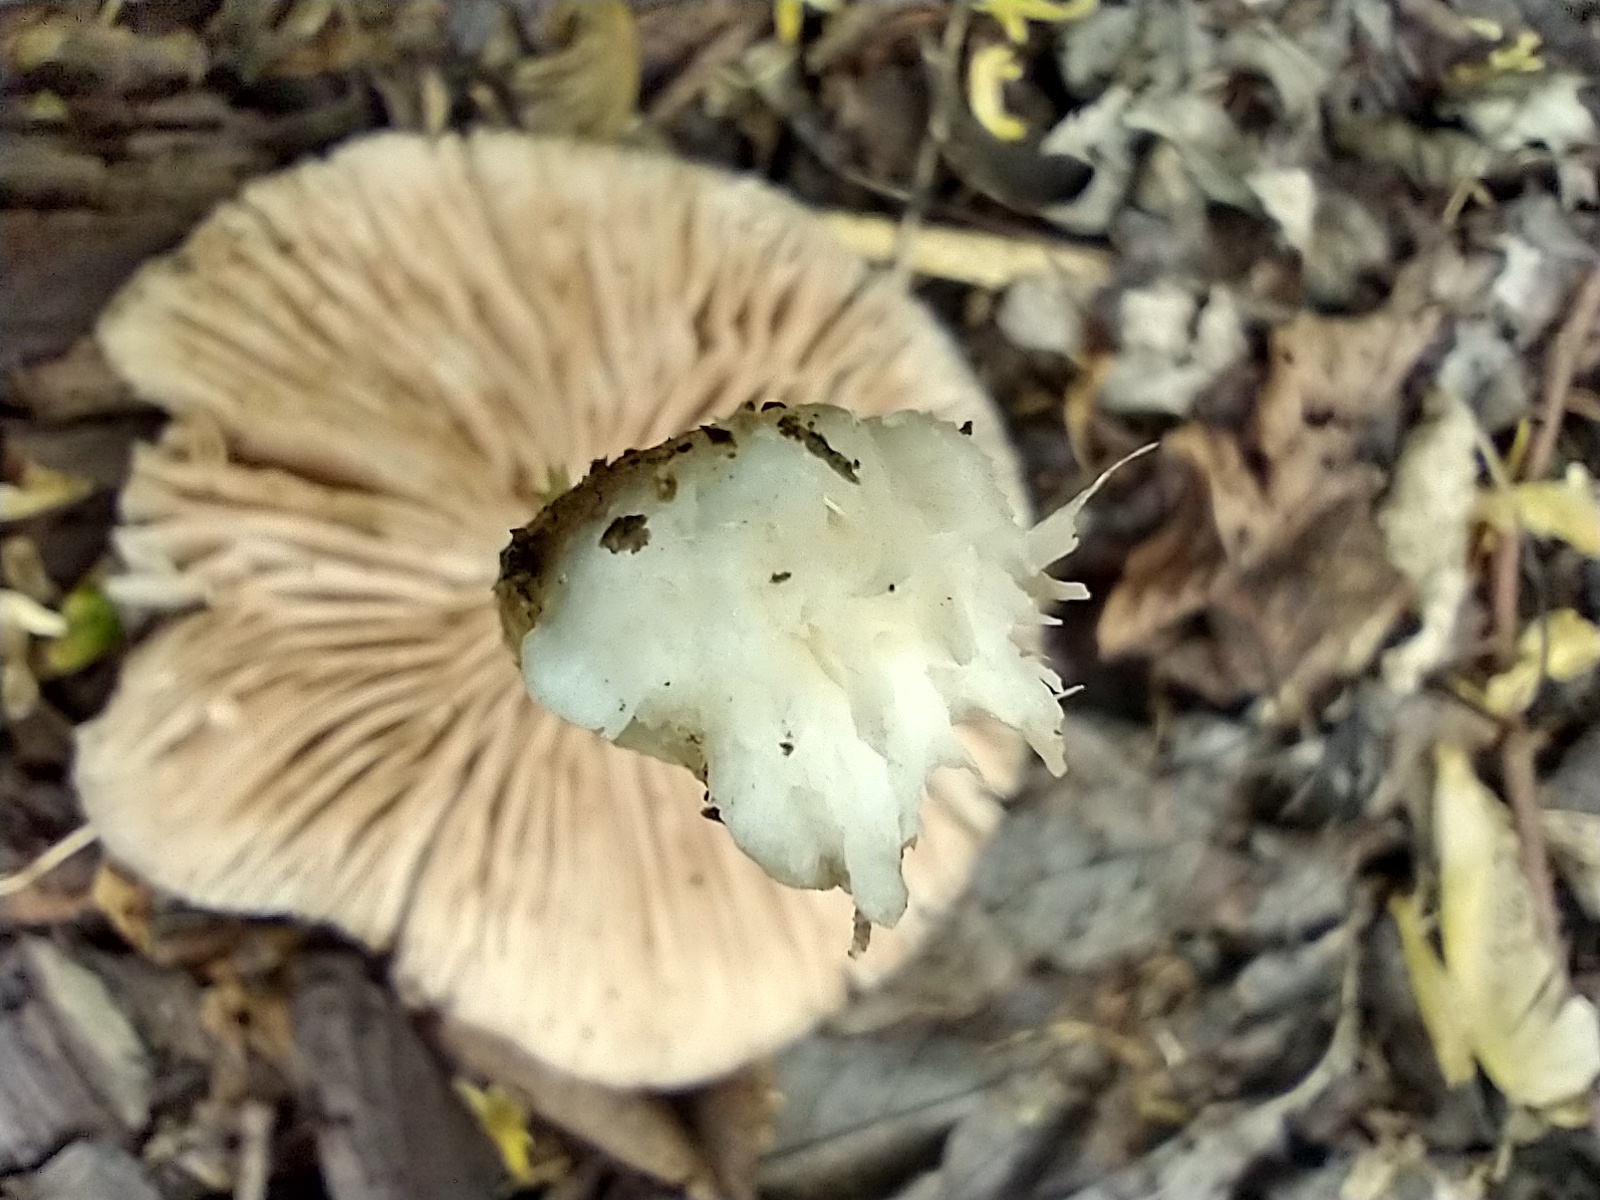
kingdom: Fungi
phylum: Basidiomycota
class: Agaricomycetes
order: Agaricales
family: Pluteaceae
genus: Pluteus
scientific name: Pluteus cervinus
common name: Deer shield
